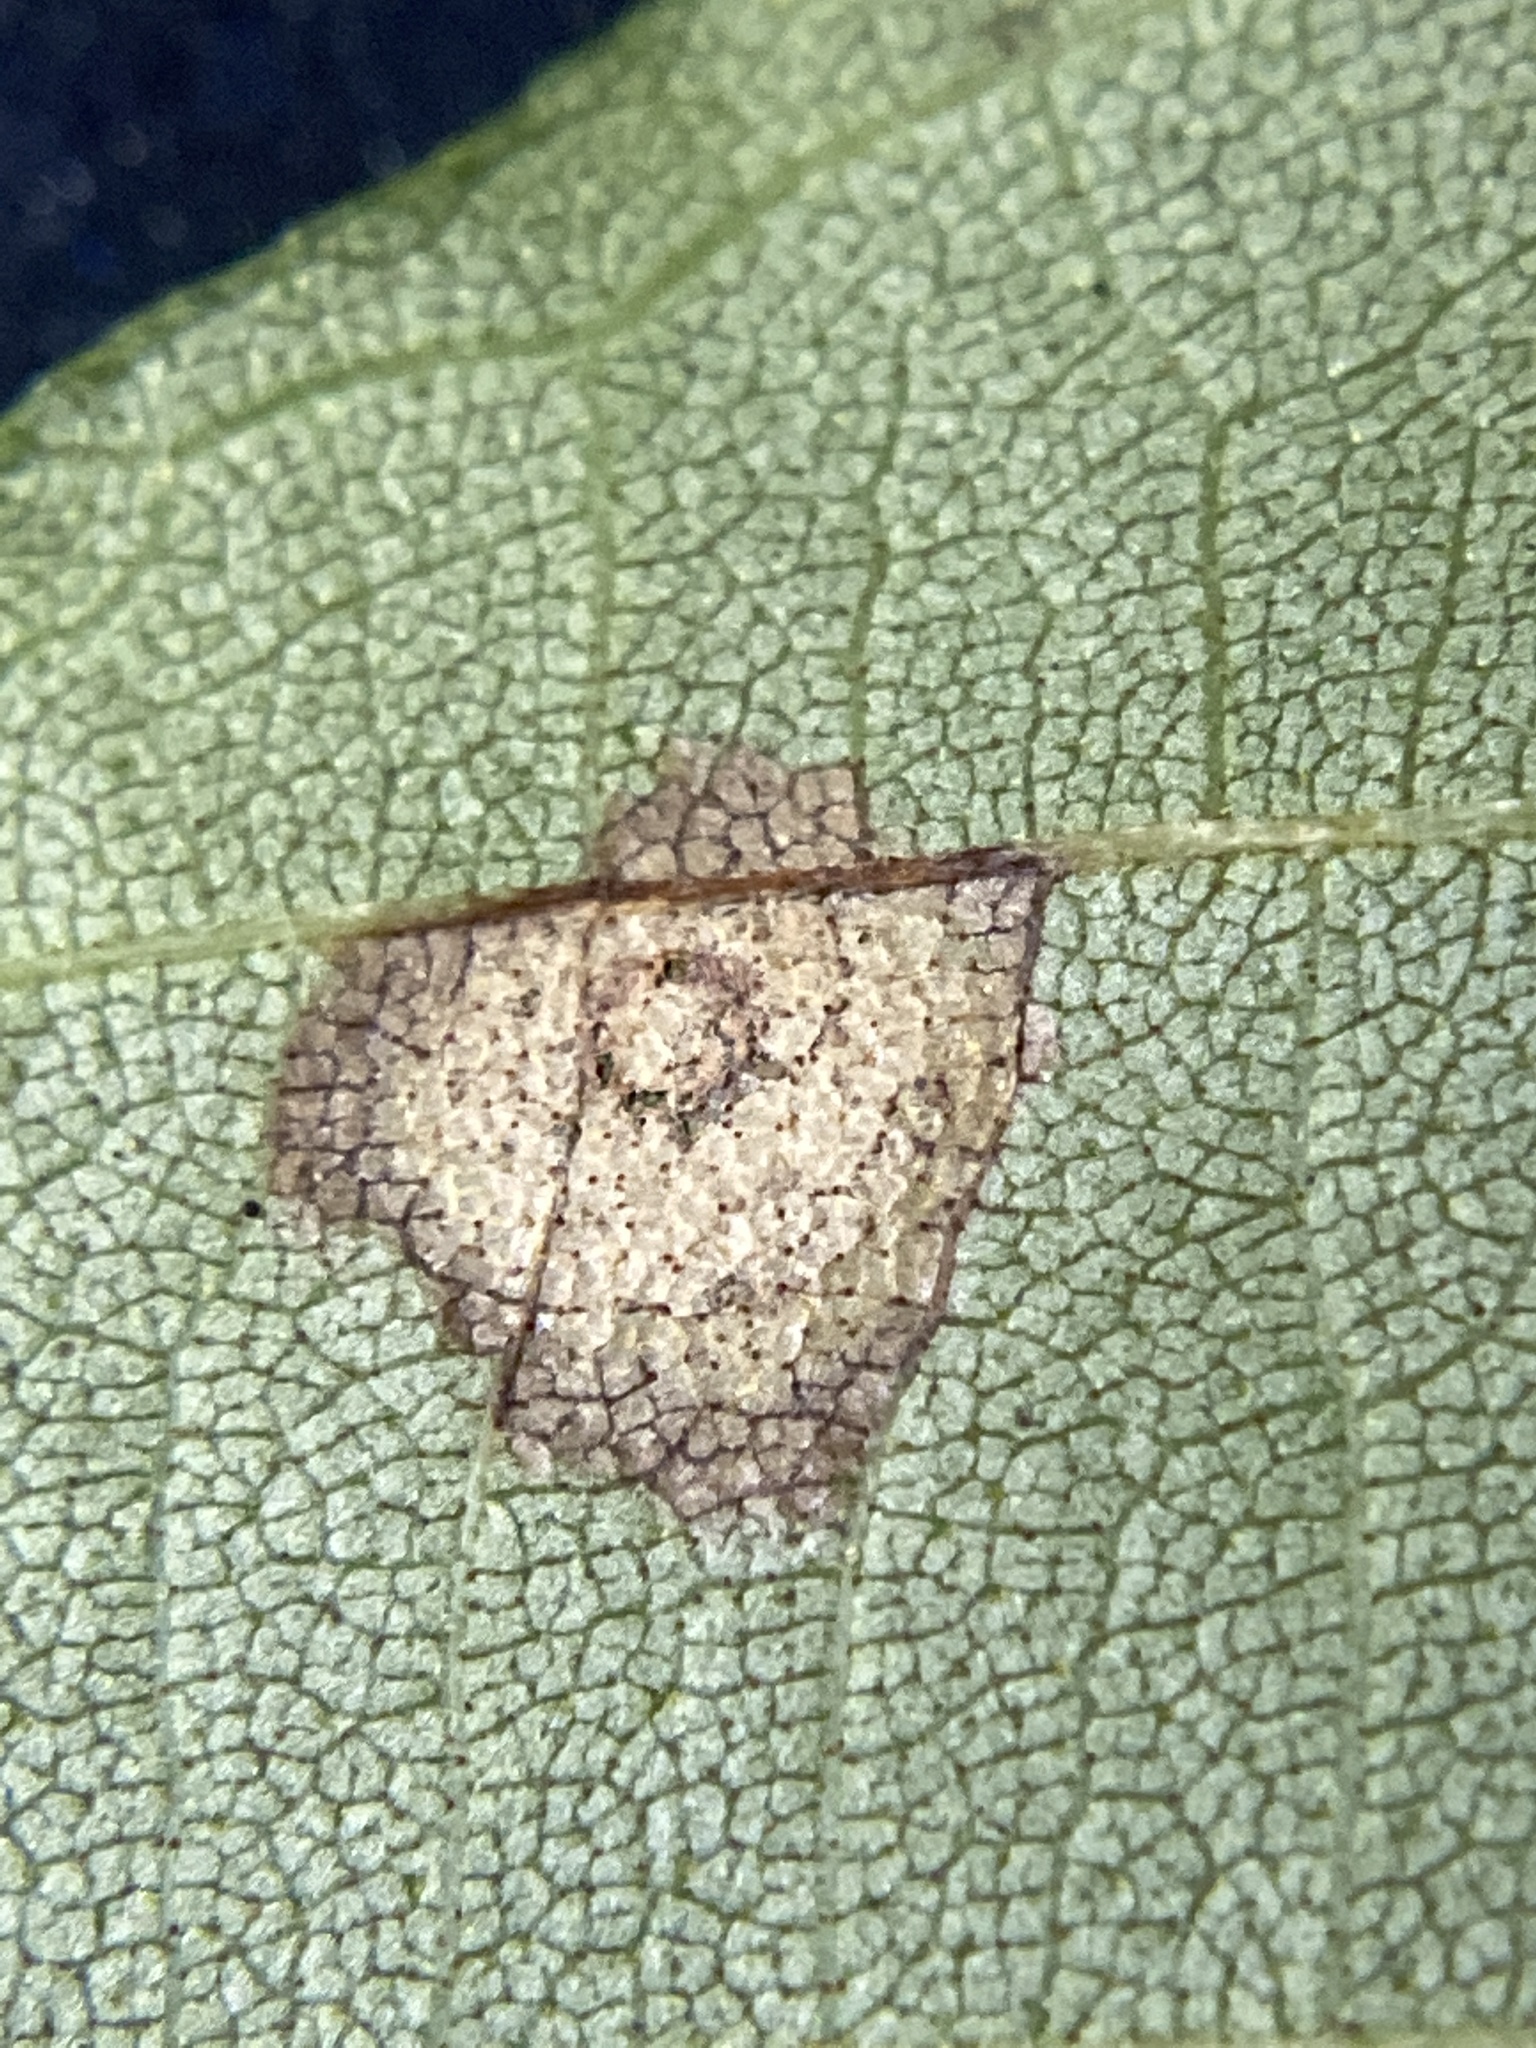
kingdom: Animalia
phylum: Arthropoda
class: Insecta
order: Diptera
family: Cecidomyiidae
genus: Gliaspilota
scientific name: Gliaspilota glutinosa
